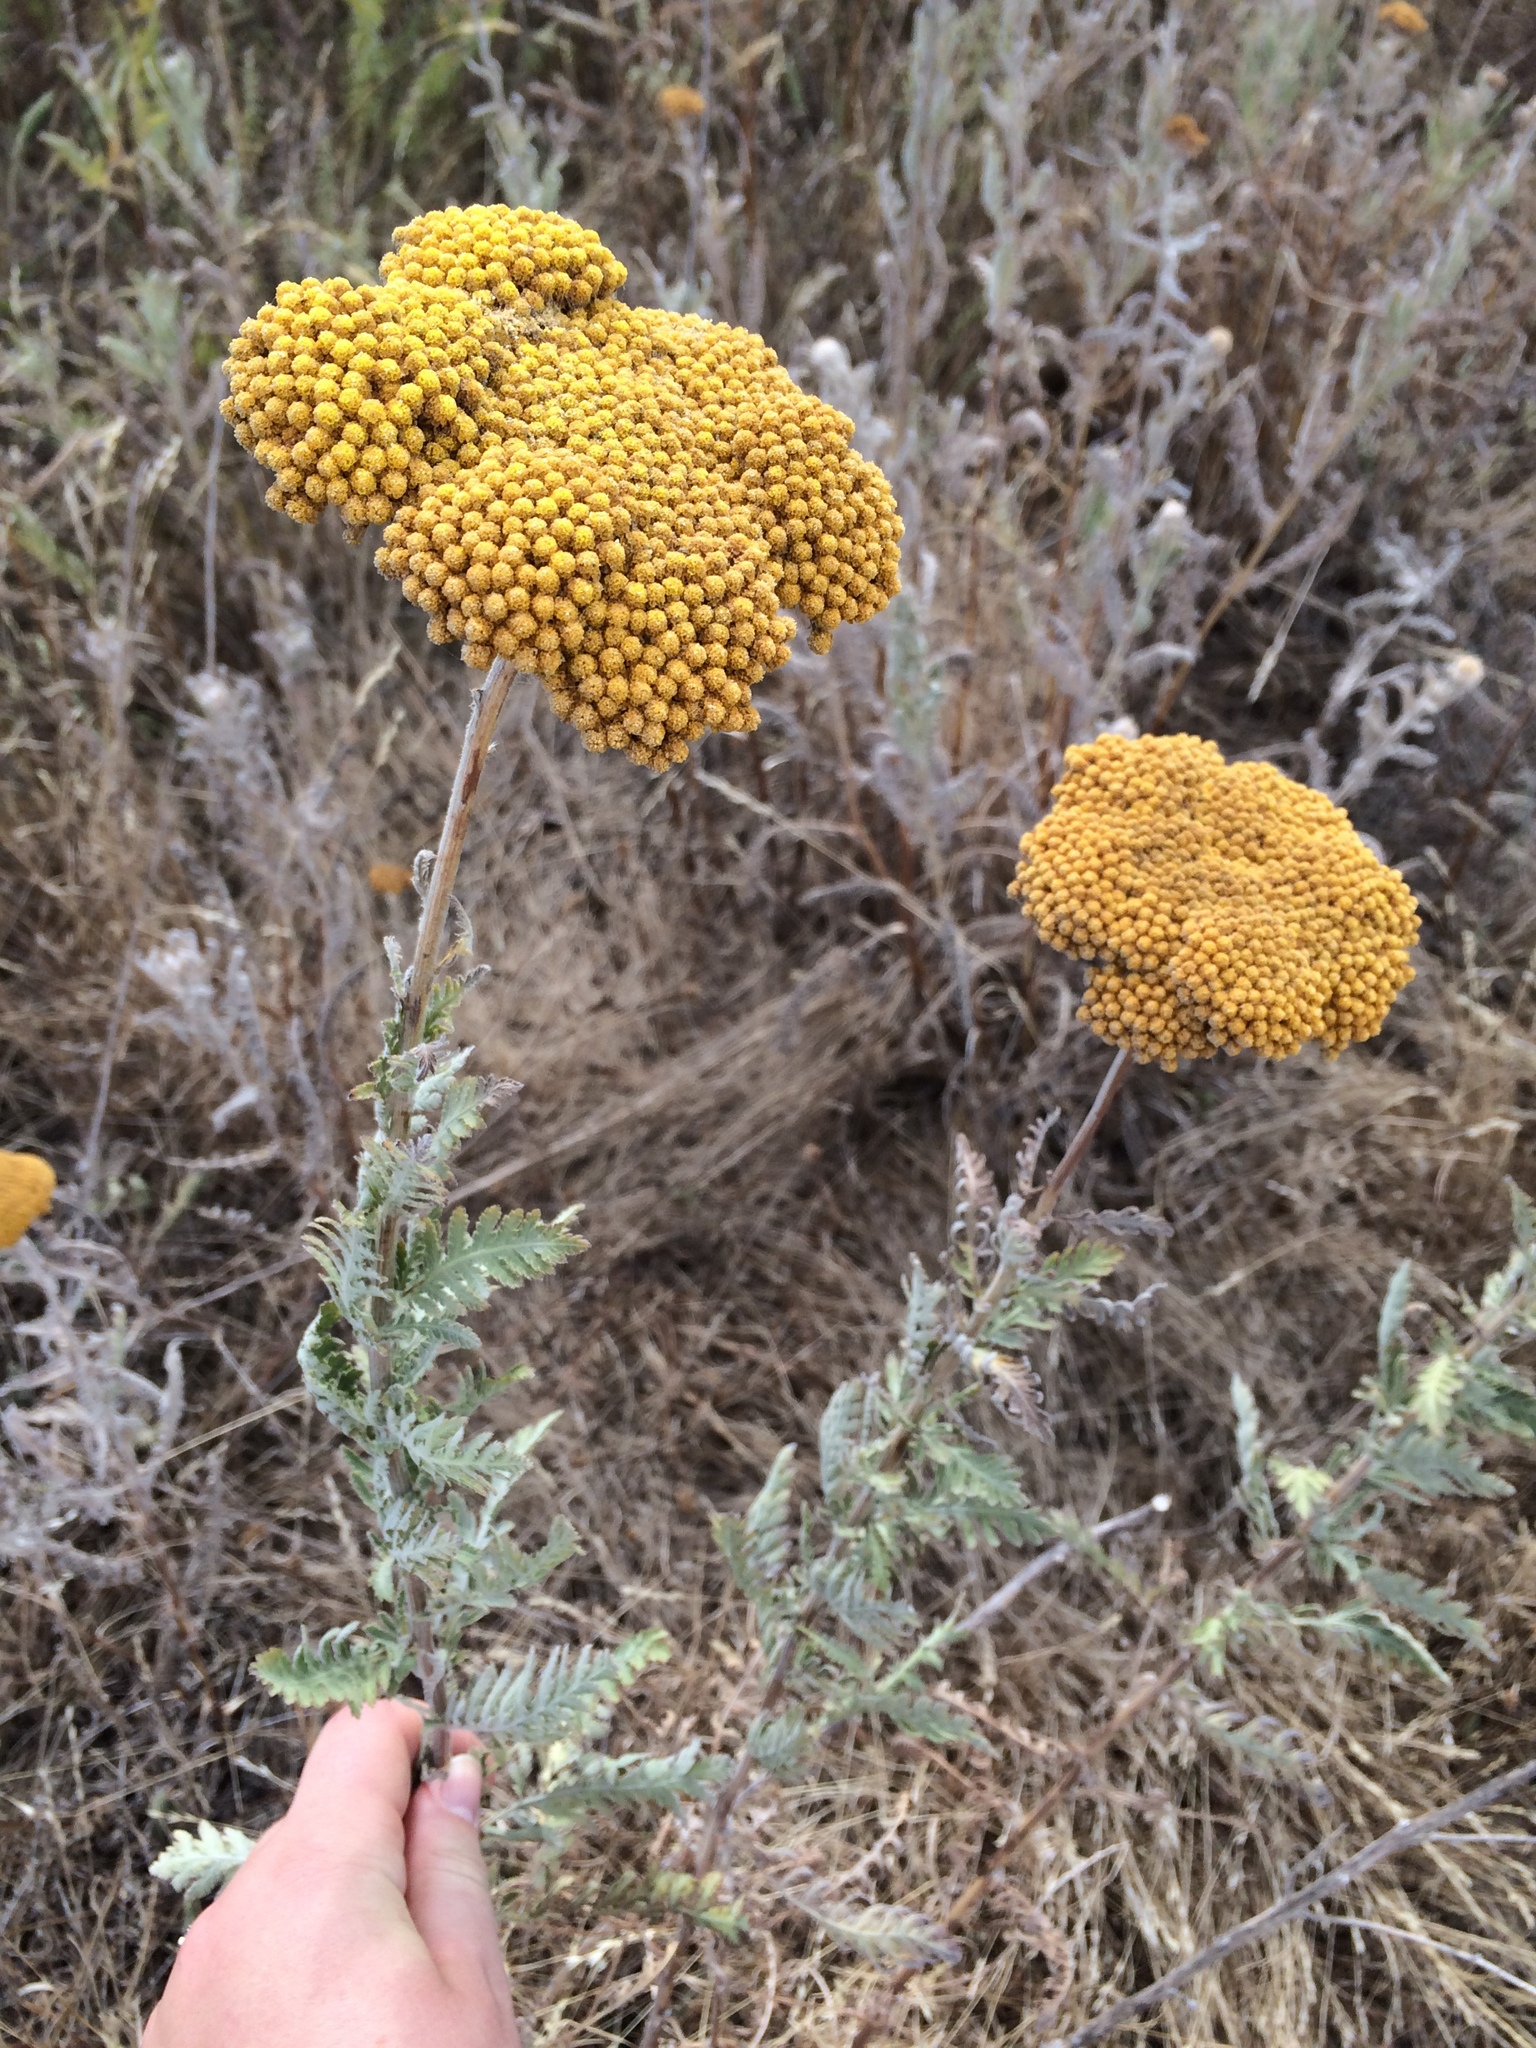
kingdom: Plantae
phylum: Tracheophyta
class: Magnoliopsida
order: Asterales
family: Asteraceae
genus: Achillea
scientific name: Achillea filipendulina
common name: Fernleaf yarrow
